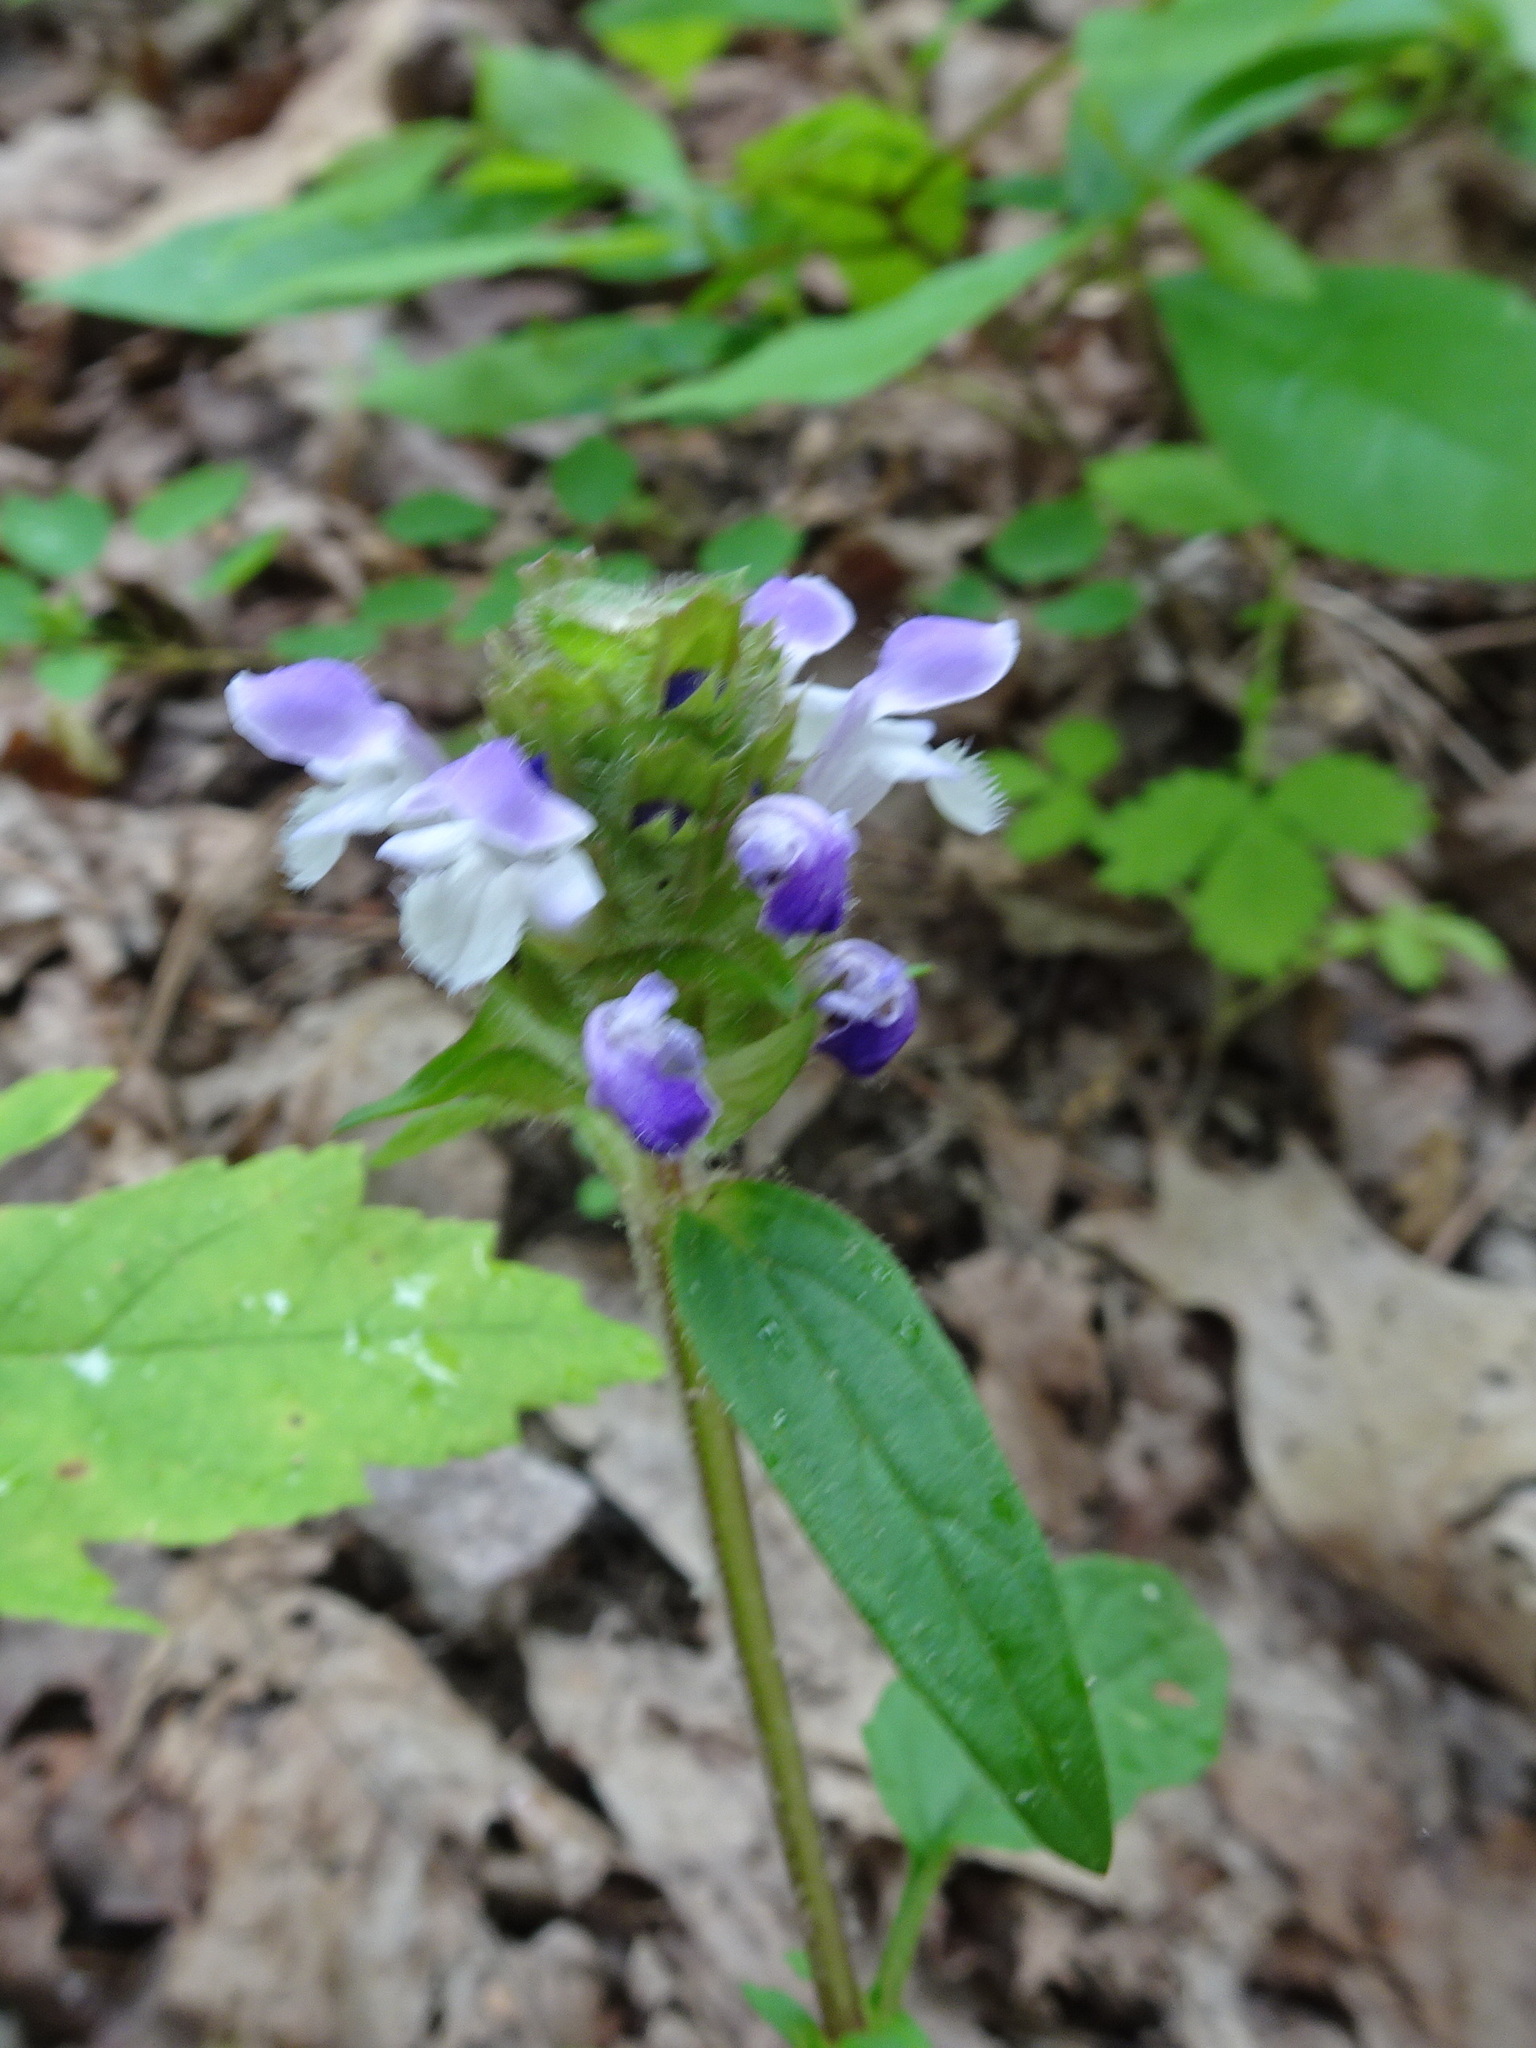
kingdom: Plantae
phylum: Tracheophyta
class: Magnoliopsida
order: Lamiales
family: Lamiaceae
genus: Prunella
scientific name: Prunella vulgaris
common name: Heal-all
